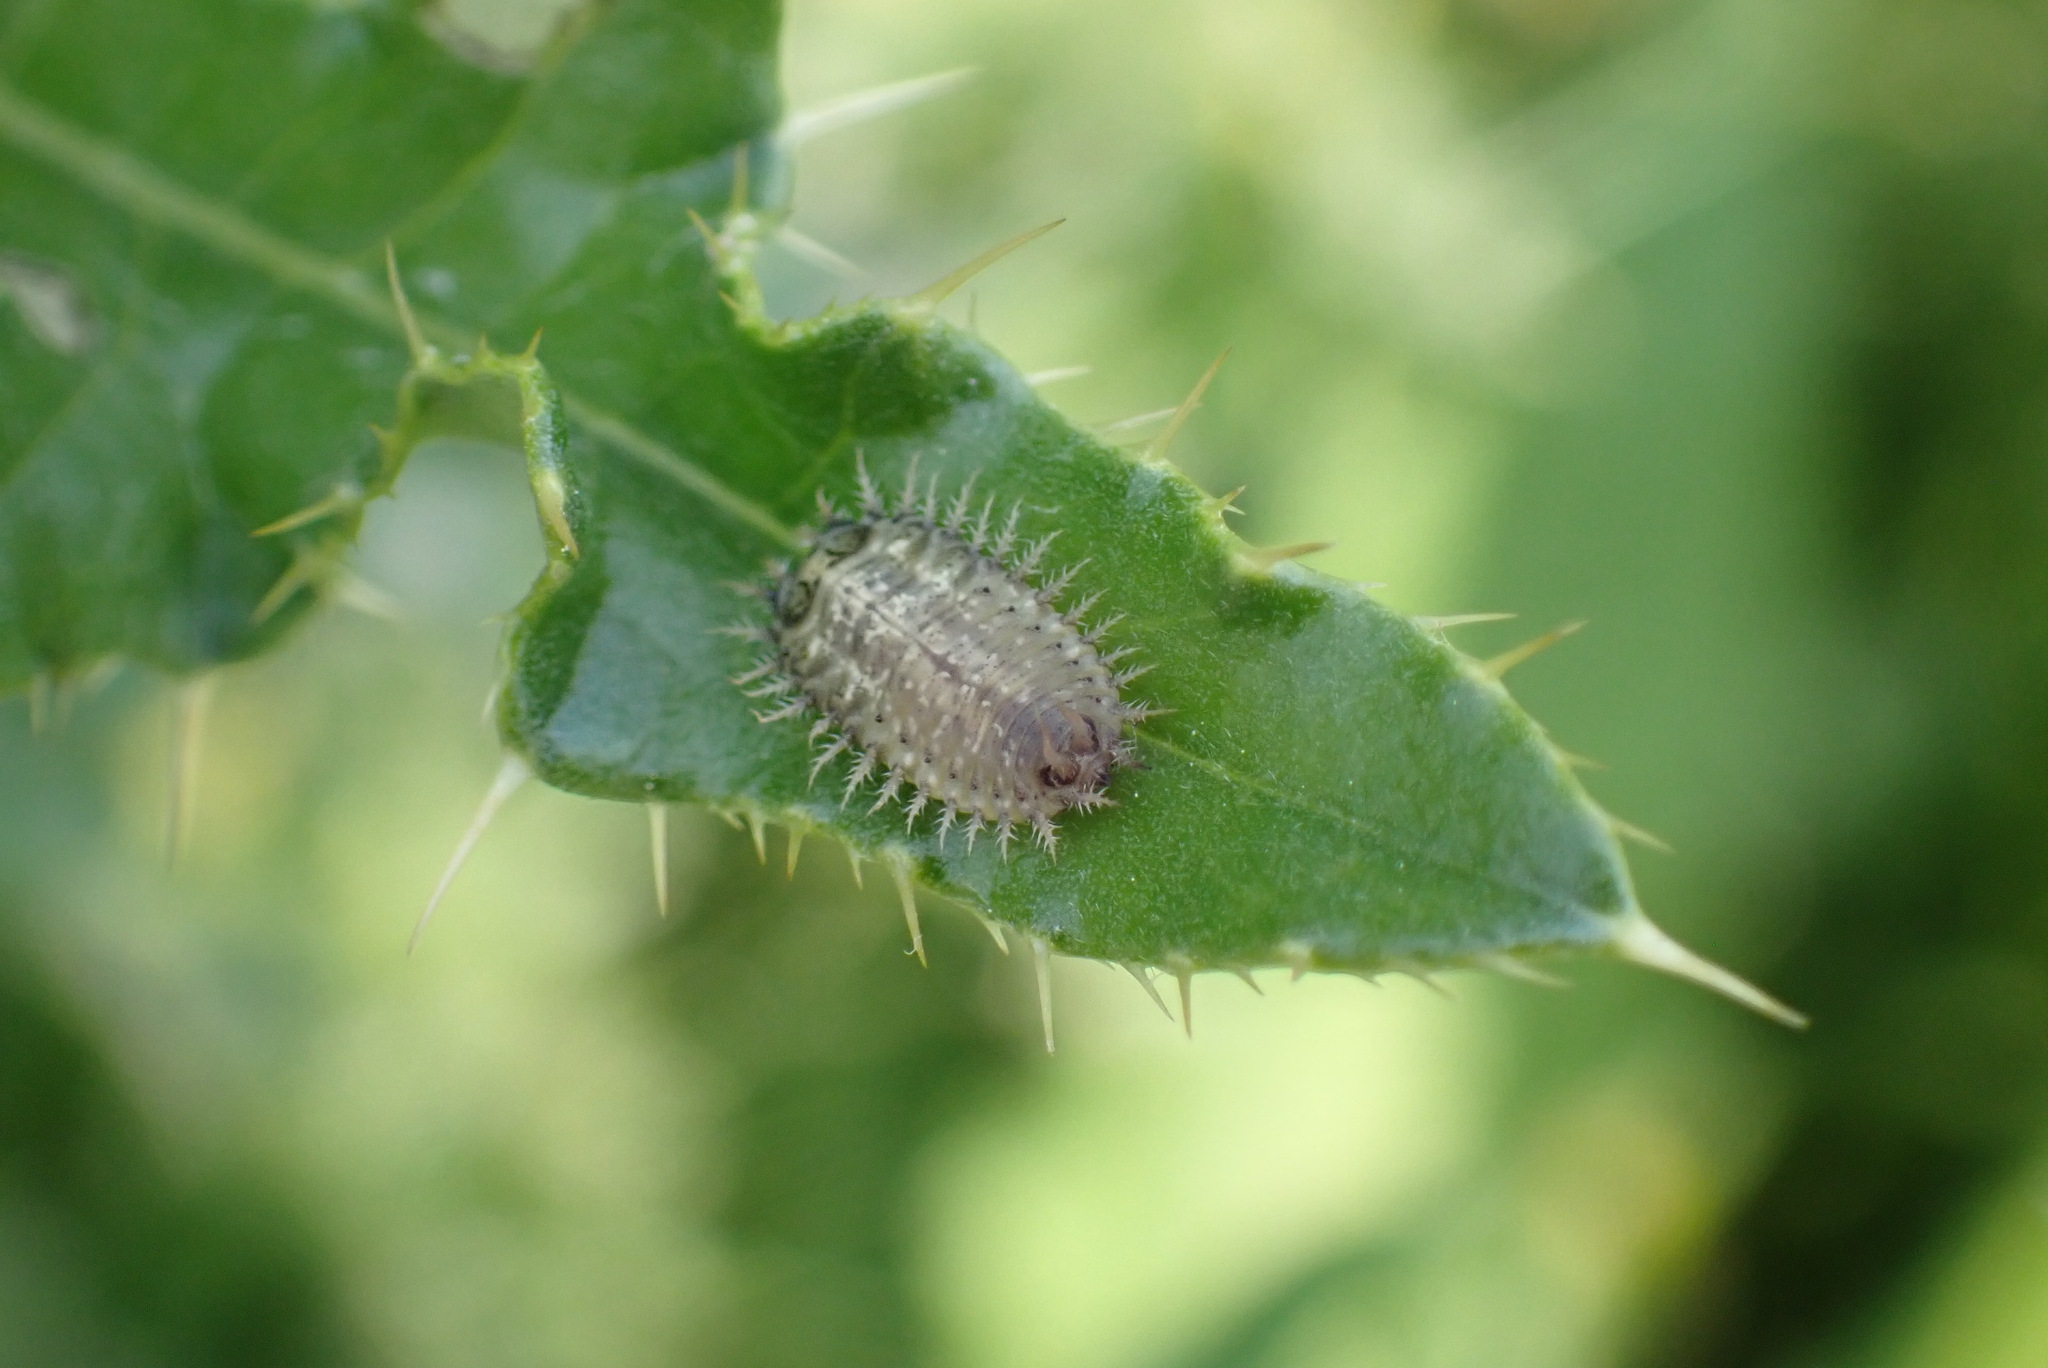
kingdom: Animalia
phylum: Arthropoda
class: Insecta
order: Coleoptera
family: Chrysomelidae
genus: Cassida
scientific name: Cassida rubiginosa
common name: Thistle tortoise beetle
